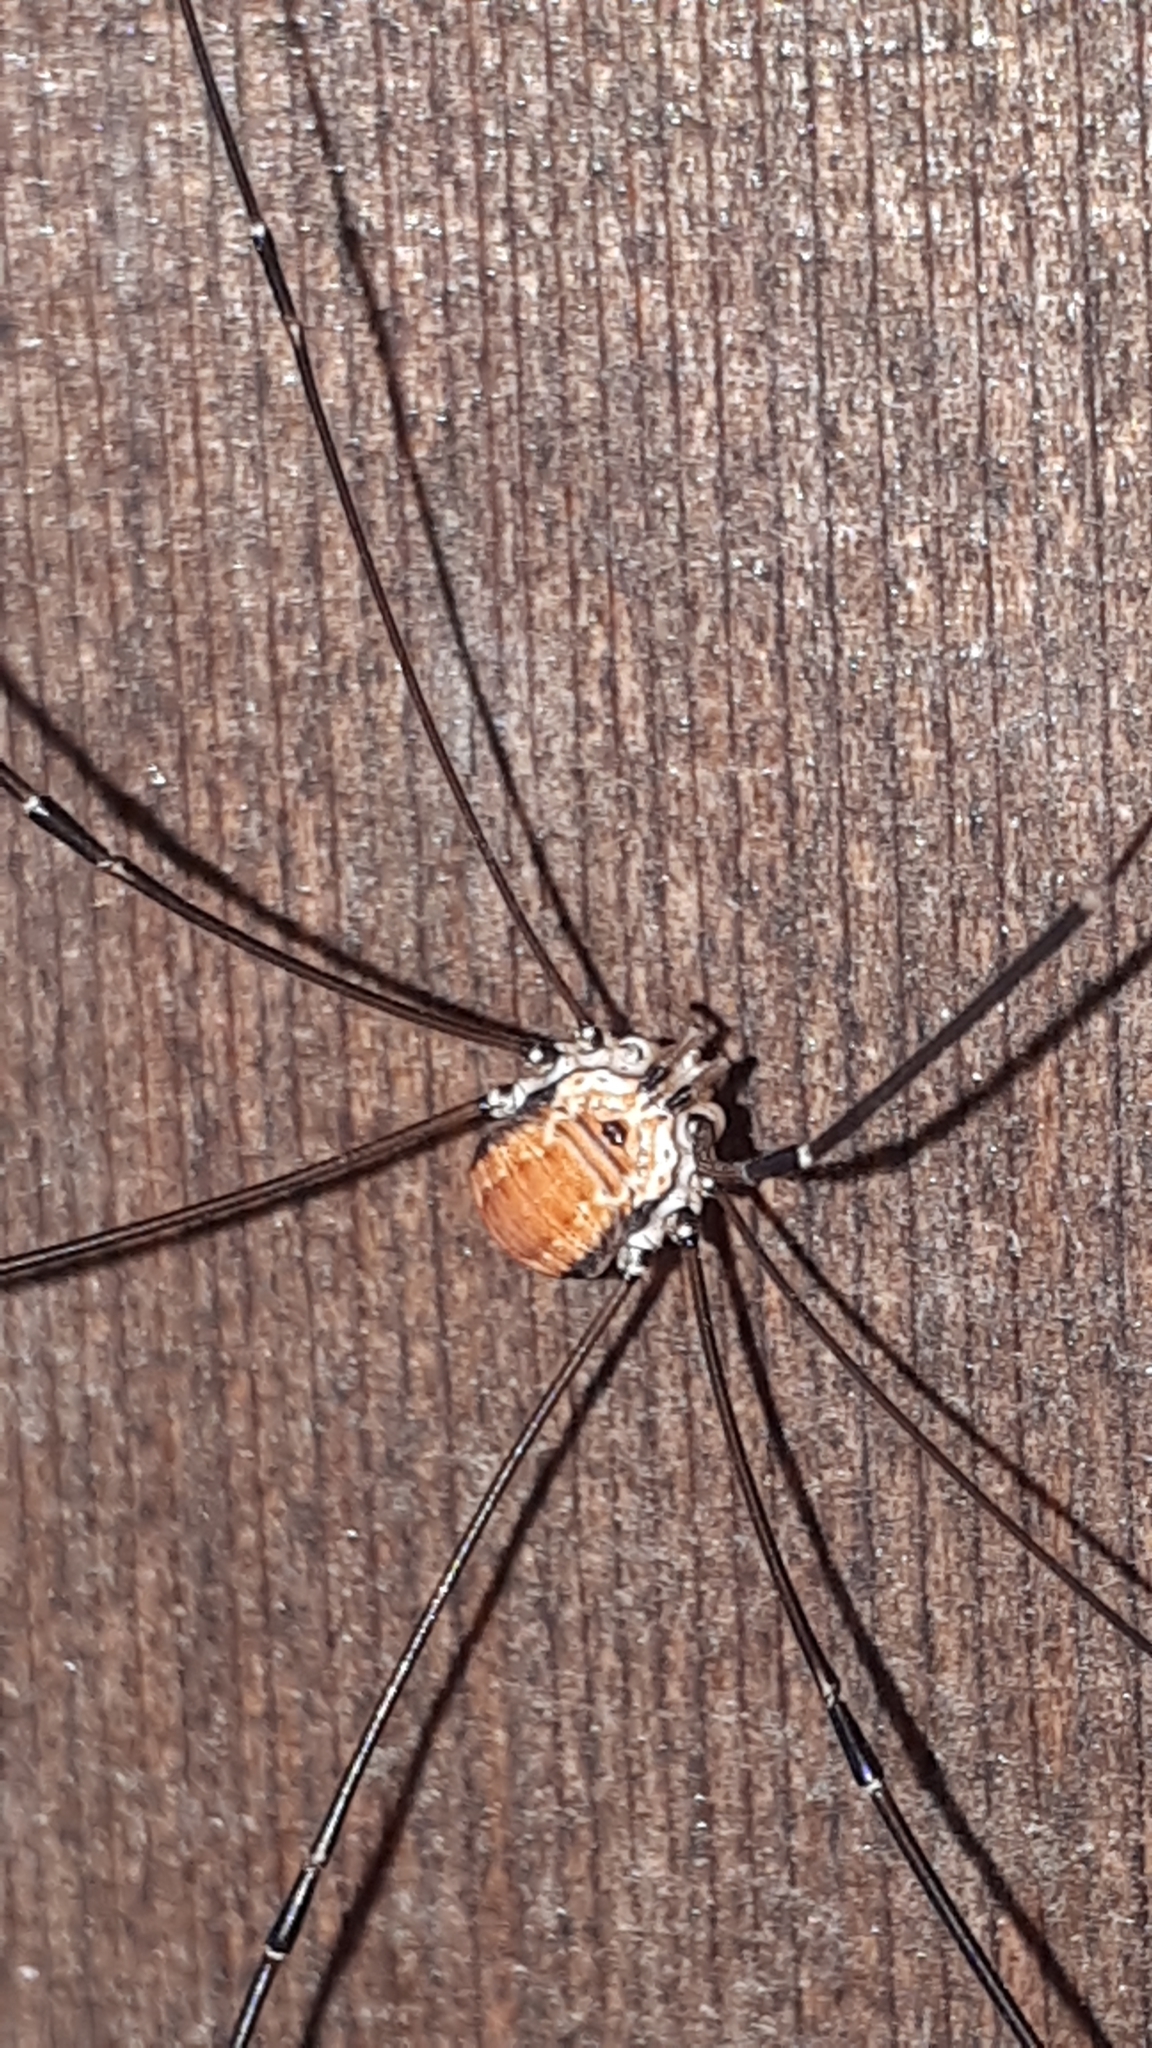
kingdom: Animalia
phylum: Arthropoda
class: Arachnida
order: Opiliones
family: Sclerosomatidae
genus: Leiobunum
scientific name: Leiobunum limbatum
